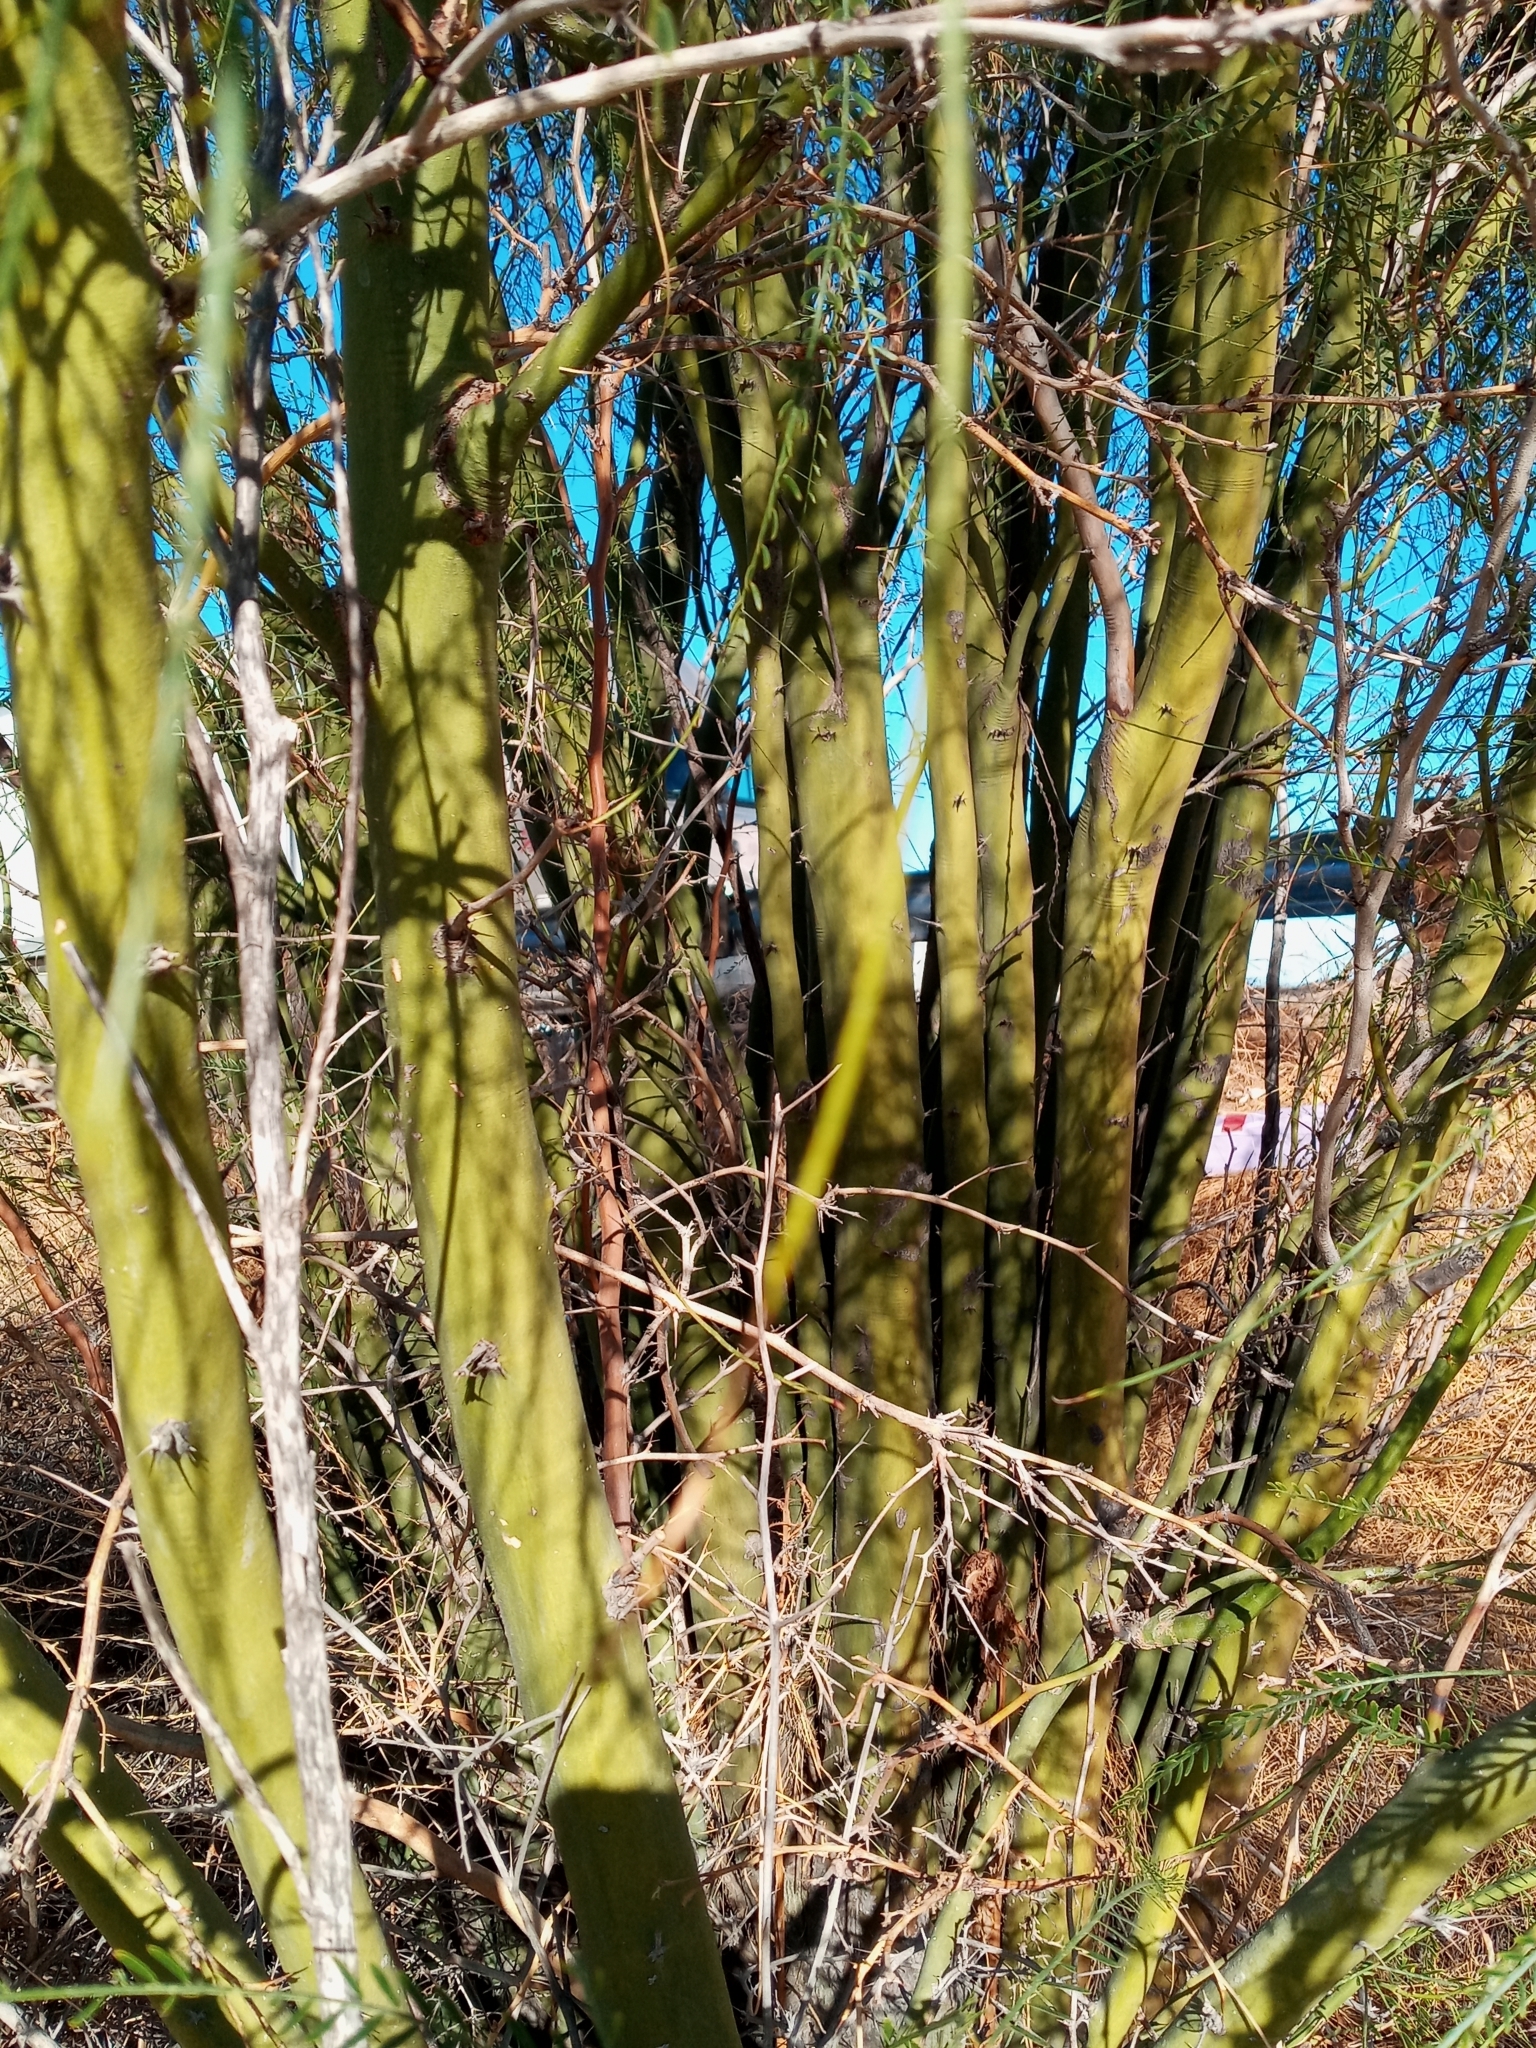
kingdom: Plantae
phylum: Tracheophyta
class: Magnoliopsida
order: Fabales
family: Fabaceae
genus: Parkinsonia
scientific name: Parkinsonia aculeata
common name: Jerusalem thorn
